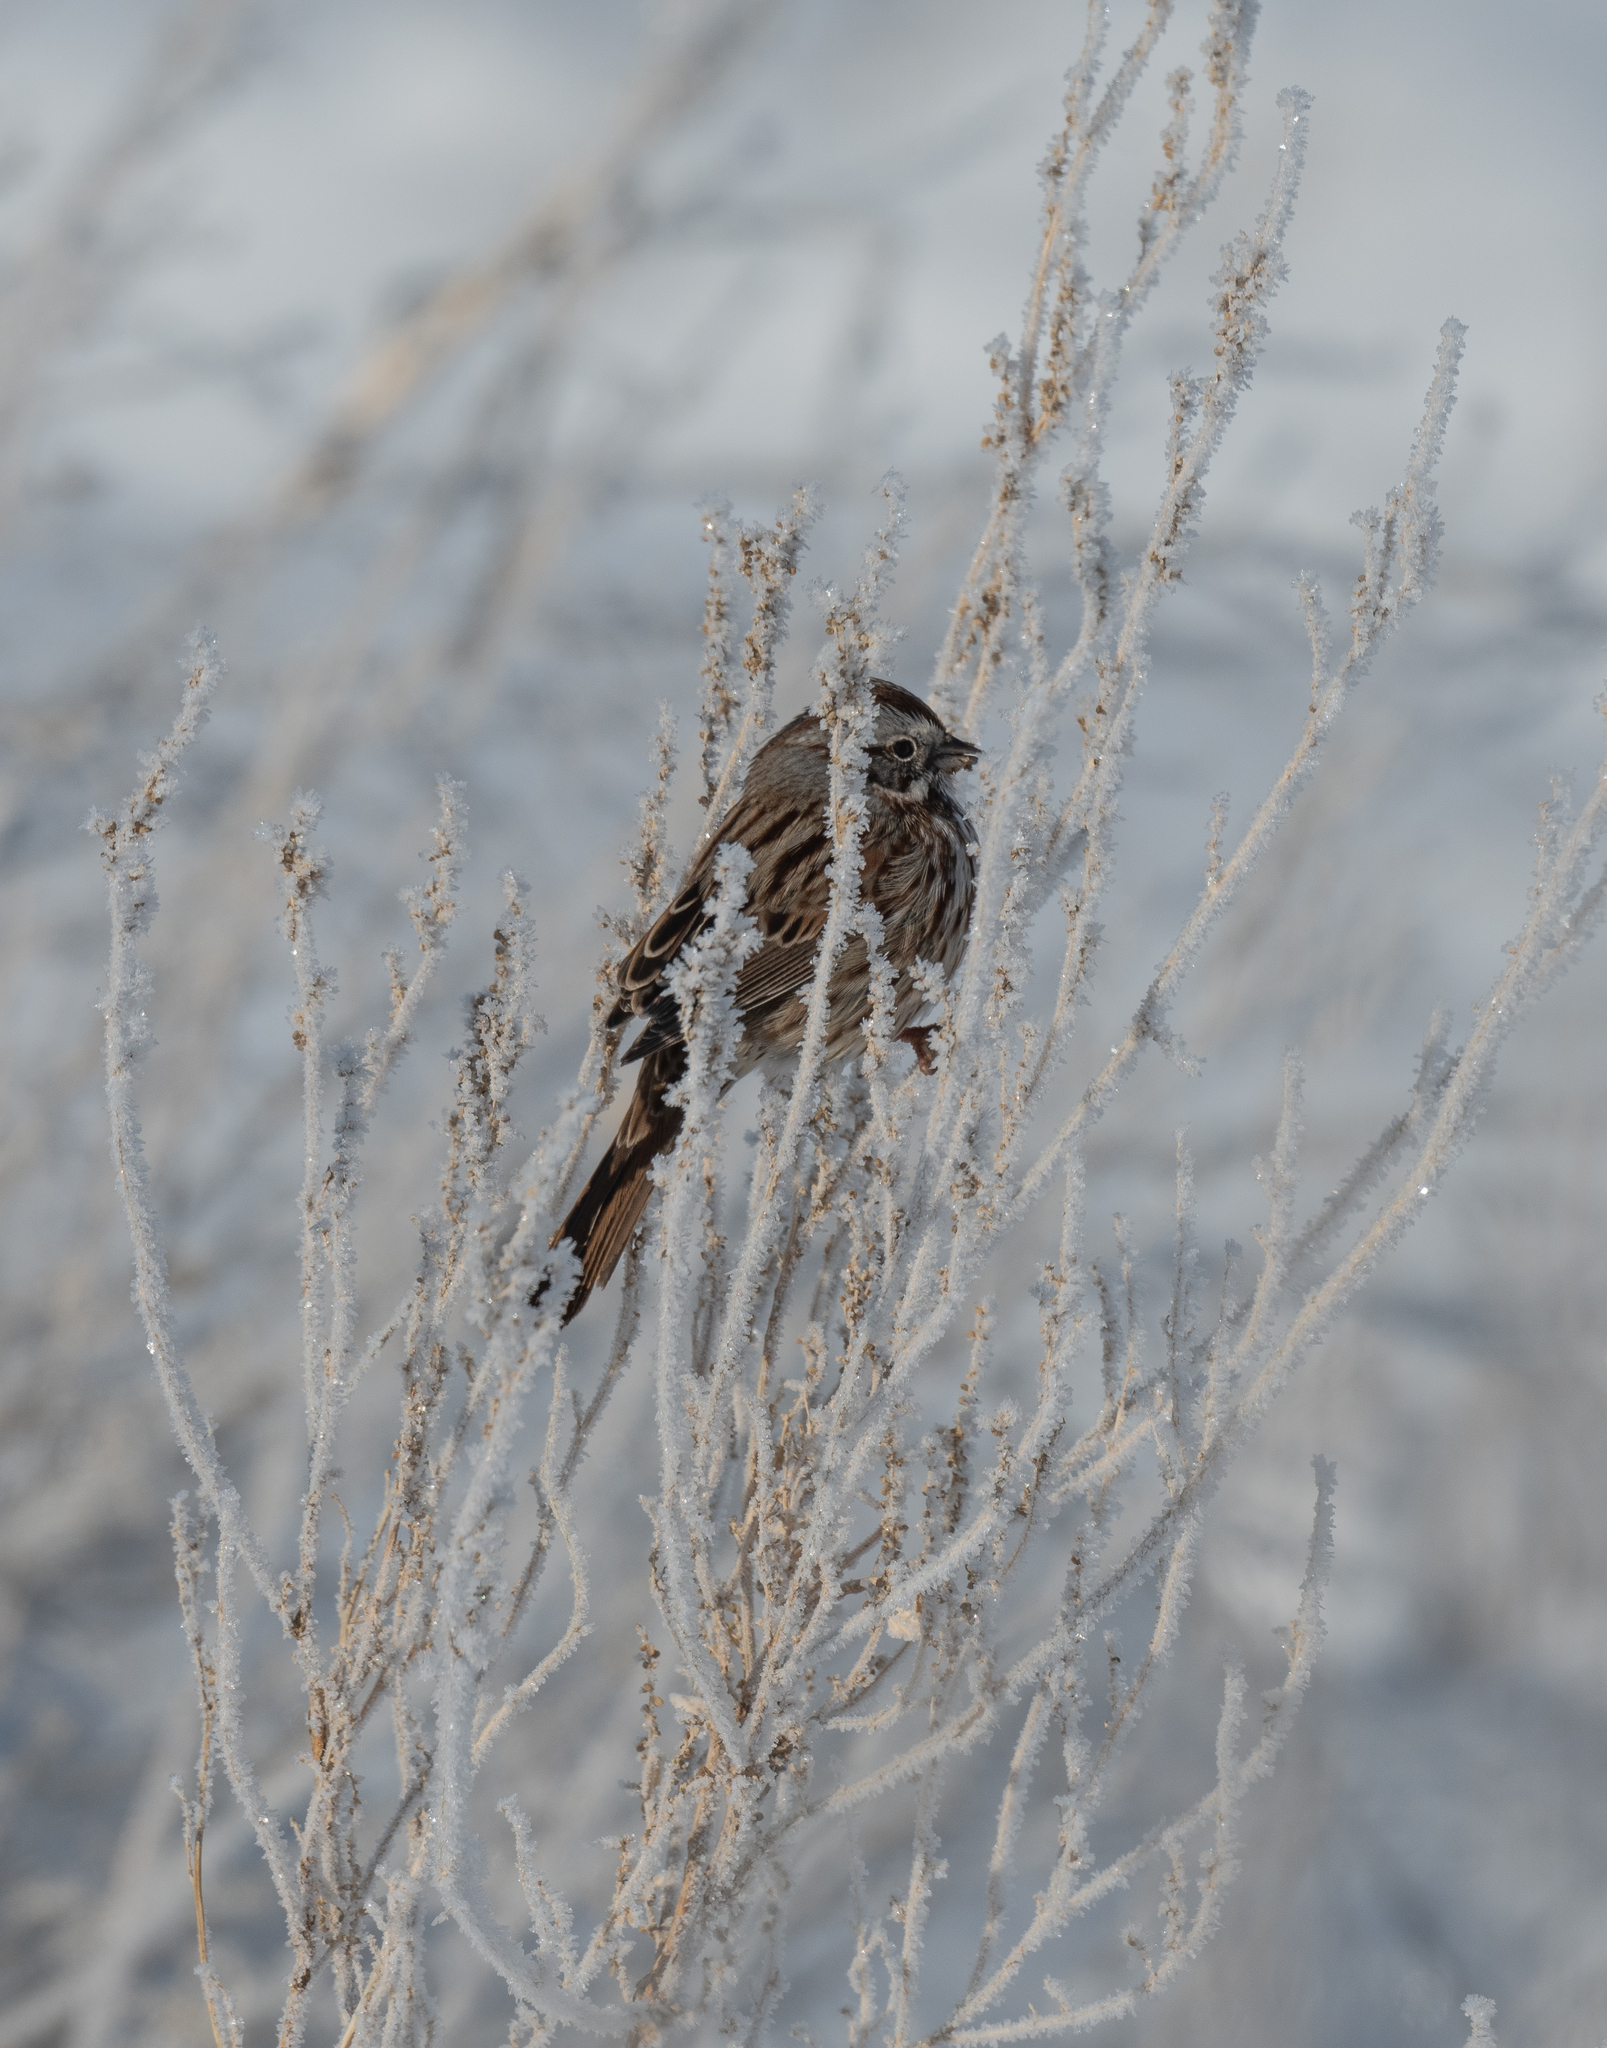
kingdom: Animalia
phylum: Chordata
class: Aves
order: Passeriformes
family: Passerellidae
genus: Melospiza
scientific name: Melospiza melodia
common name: Song sparrow
